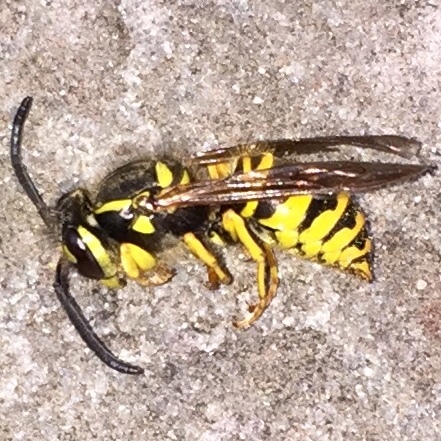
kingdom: Animalia
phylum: Arthropoda
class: Insecta
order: Hymenoptera
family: Vespidae
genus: Vespula
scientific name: Vespula maculifrons
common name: Eastern yellowjacket
